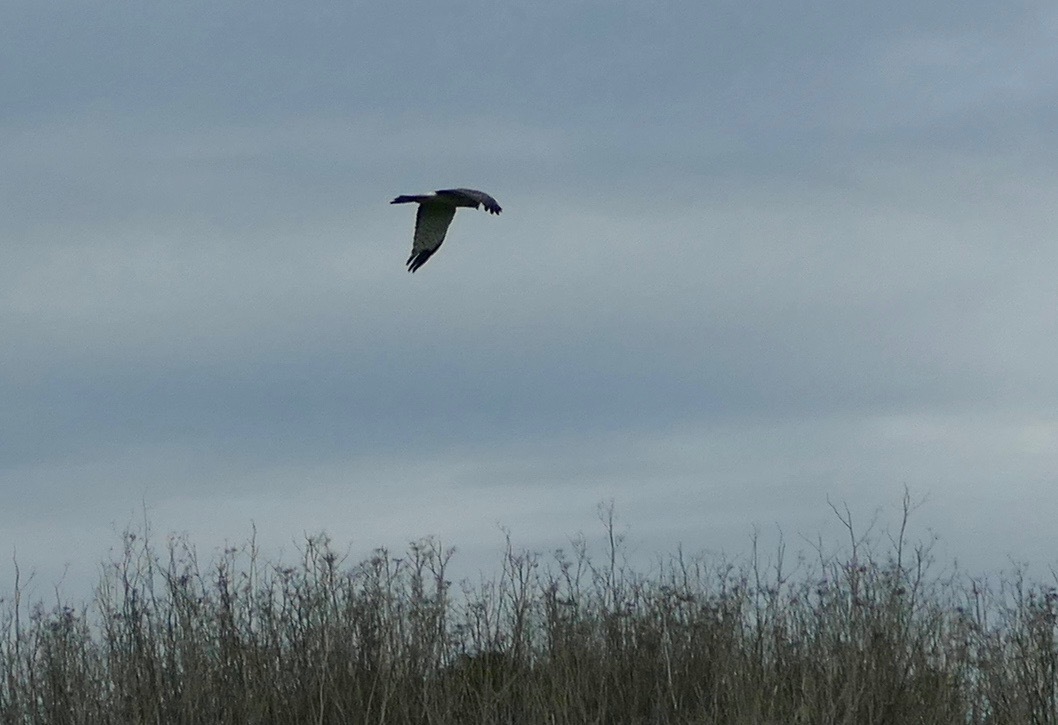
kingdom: Animalia
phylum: Chordata
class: Aves
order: Accipitriformes
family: Accipitridae
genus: Circus
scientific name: Circus cyaneus
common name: Hen harrier
